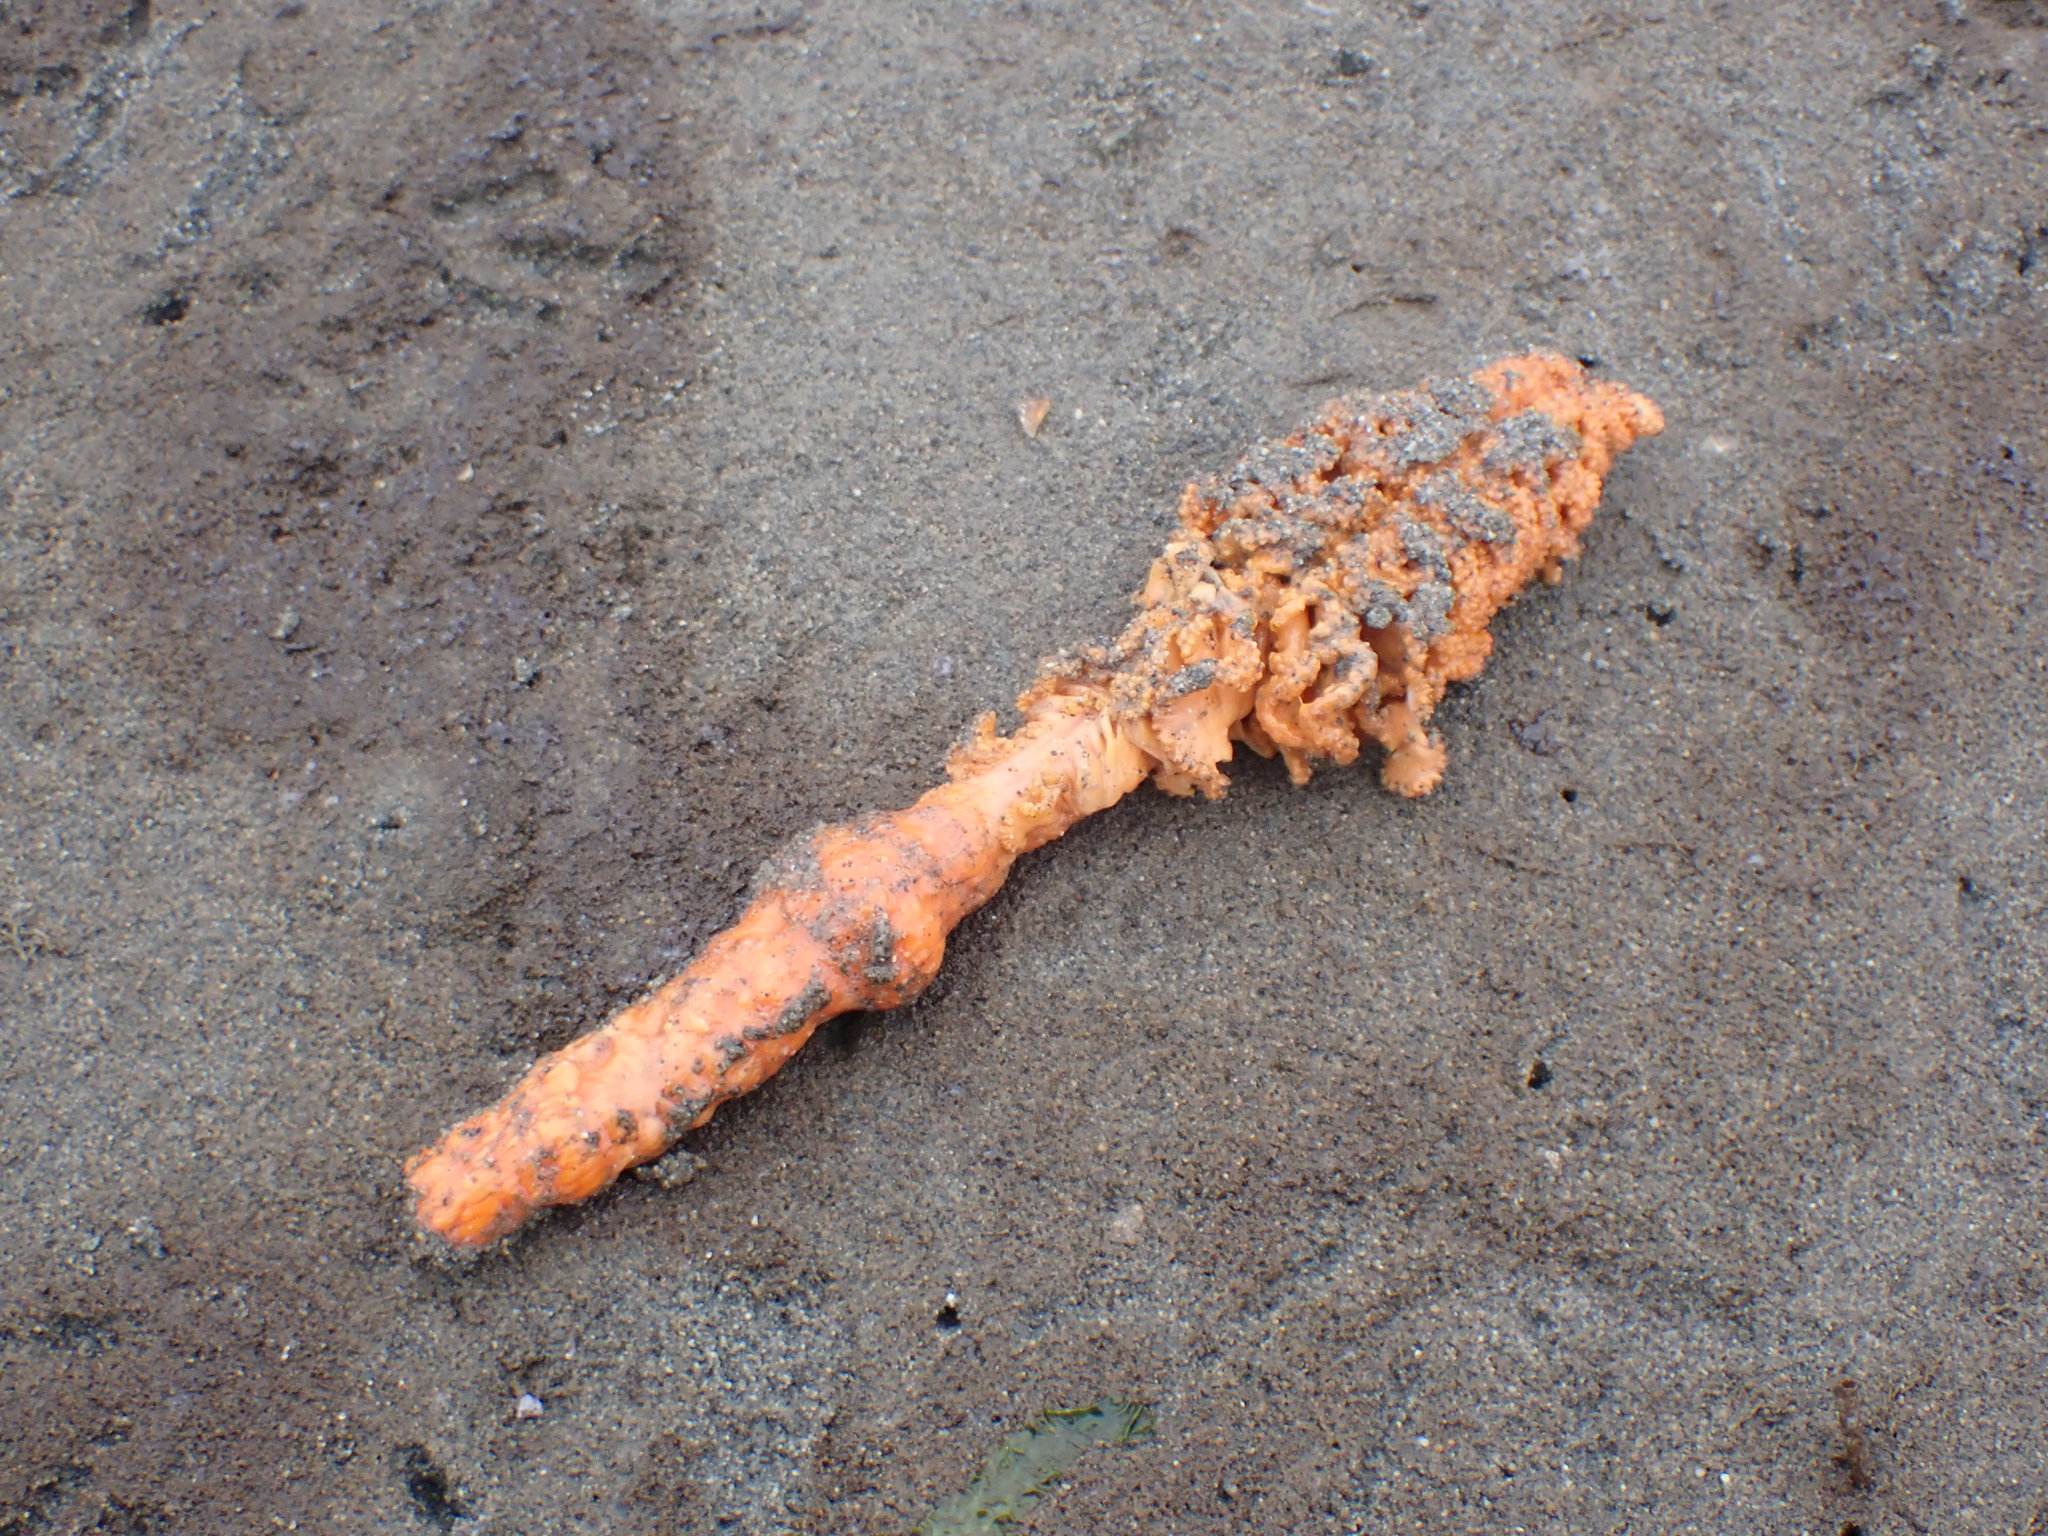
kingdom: Animalia
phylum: Cnidaria
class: Anthozoa
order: Scleralcyonacea
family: Pennatulidae
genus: Ptilosarcus
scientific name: Ptilosarcus gurneyi
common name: Gurney's sea pen
